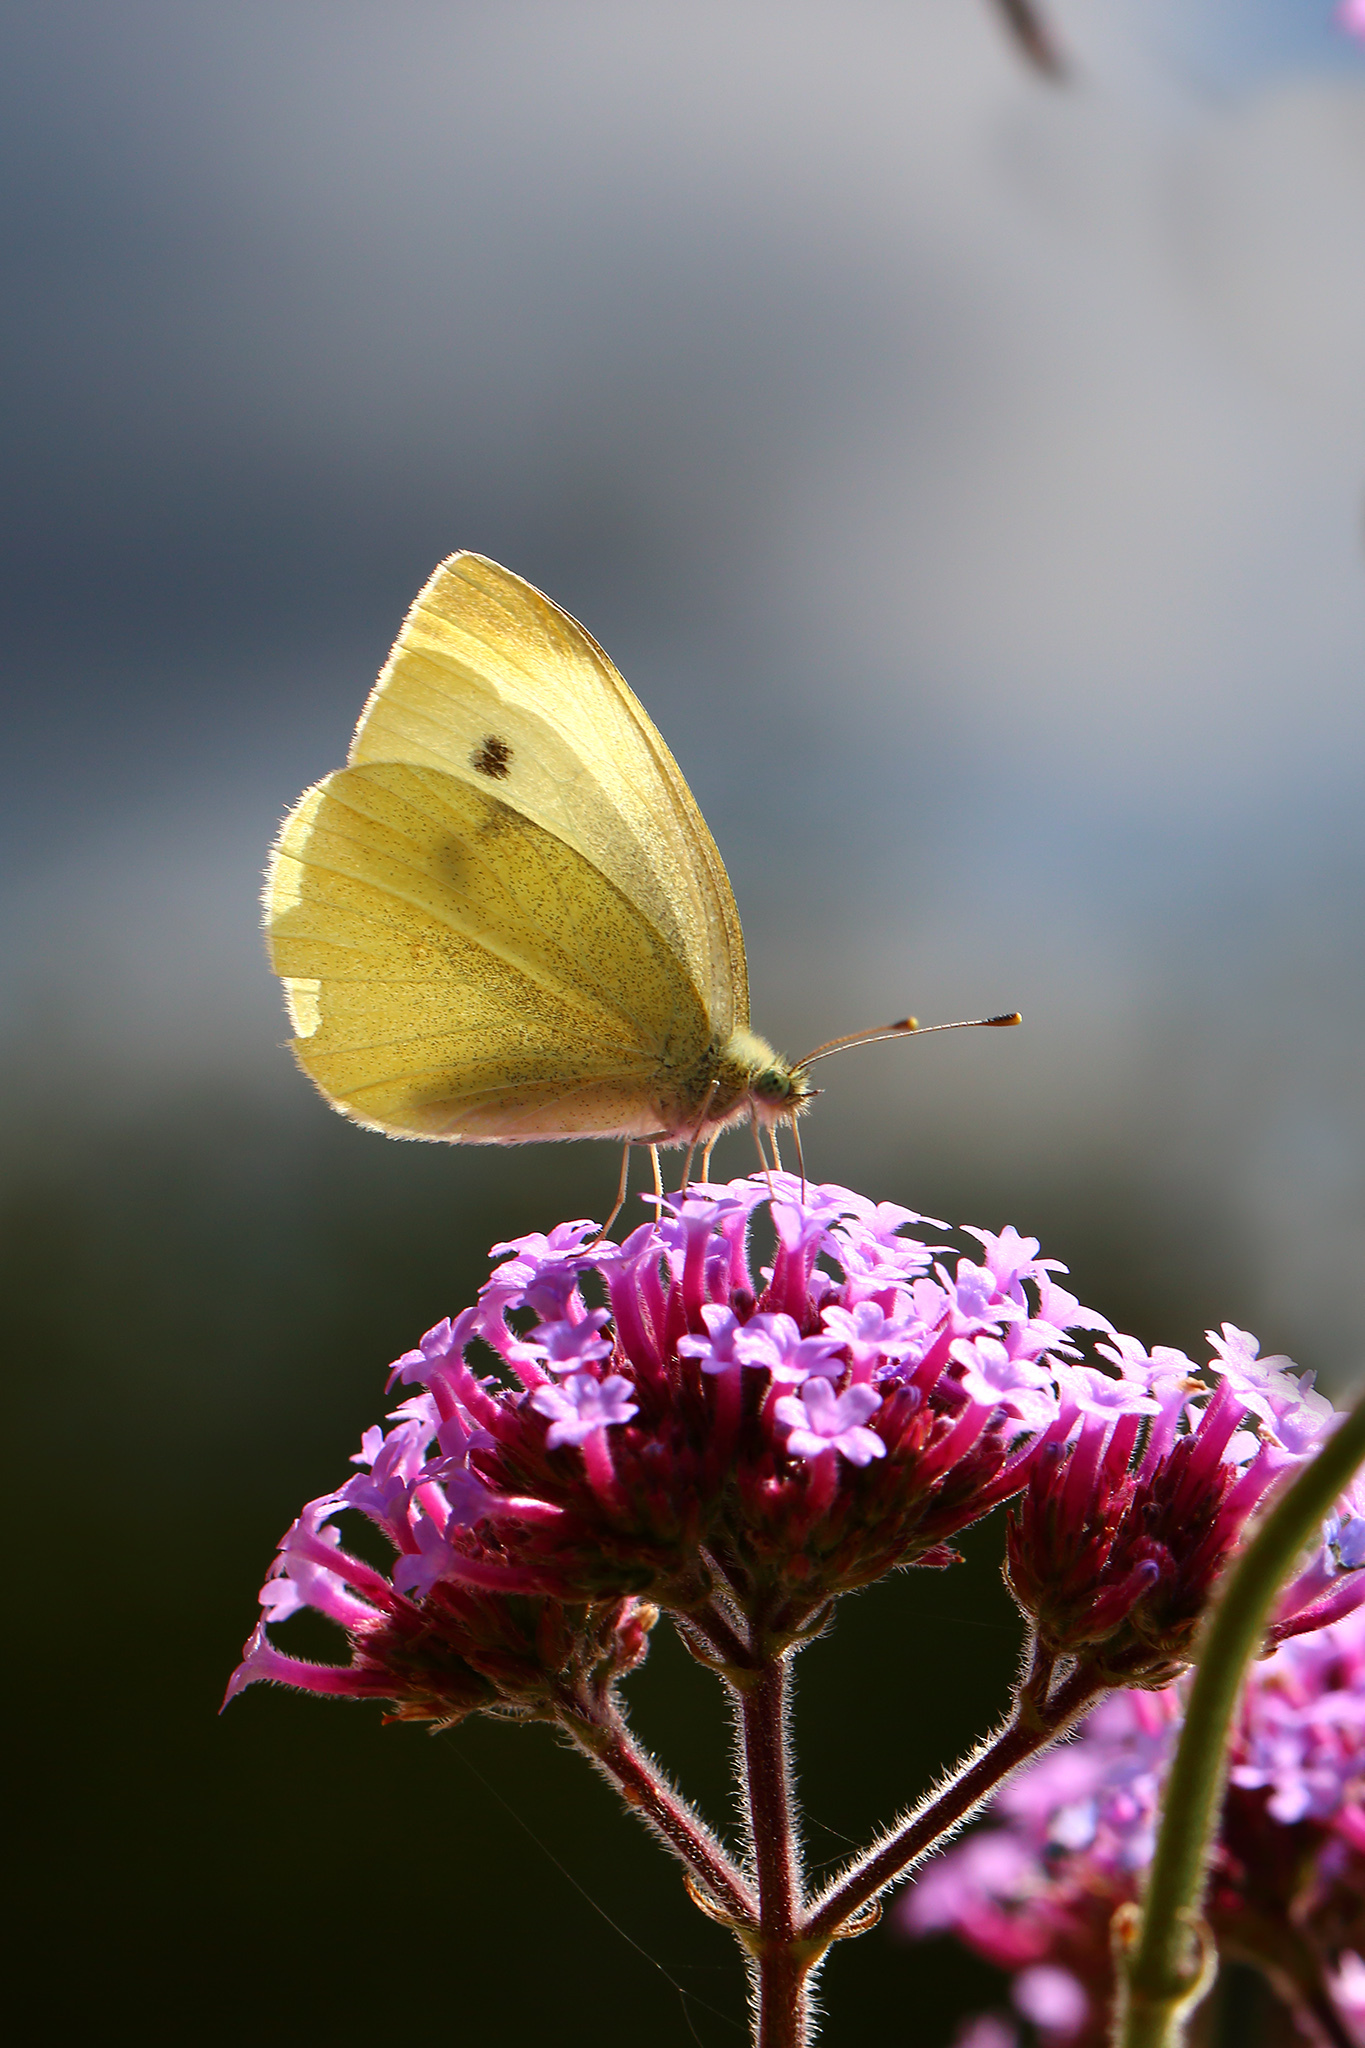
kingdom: Animalia
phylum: Arthropoda
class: Insecta
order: Lepidoptera
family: Pieridae
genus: Pieris
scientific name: Pieris rapae
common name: Small white
